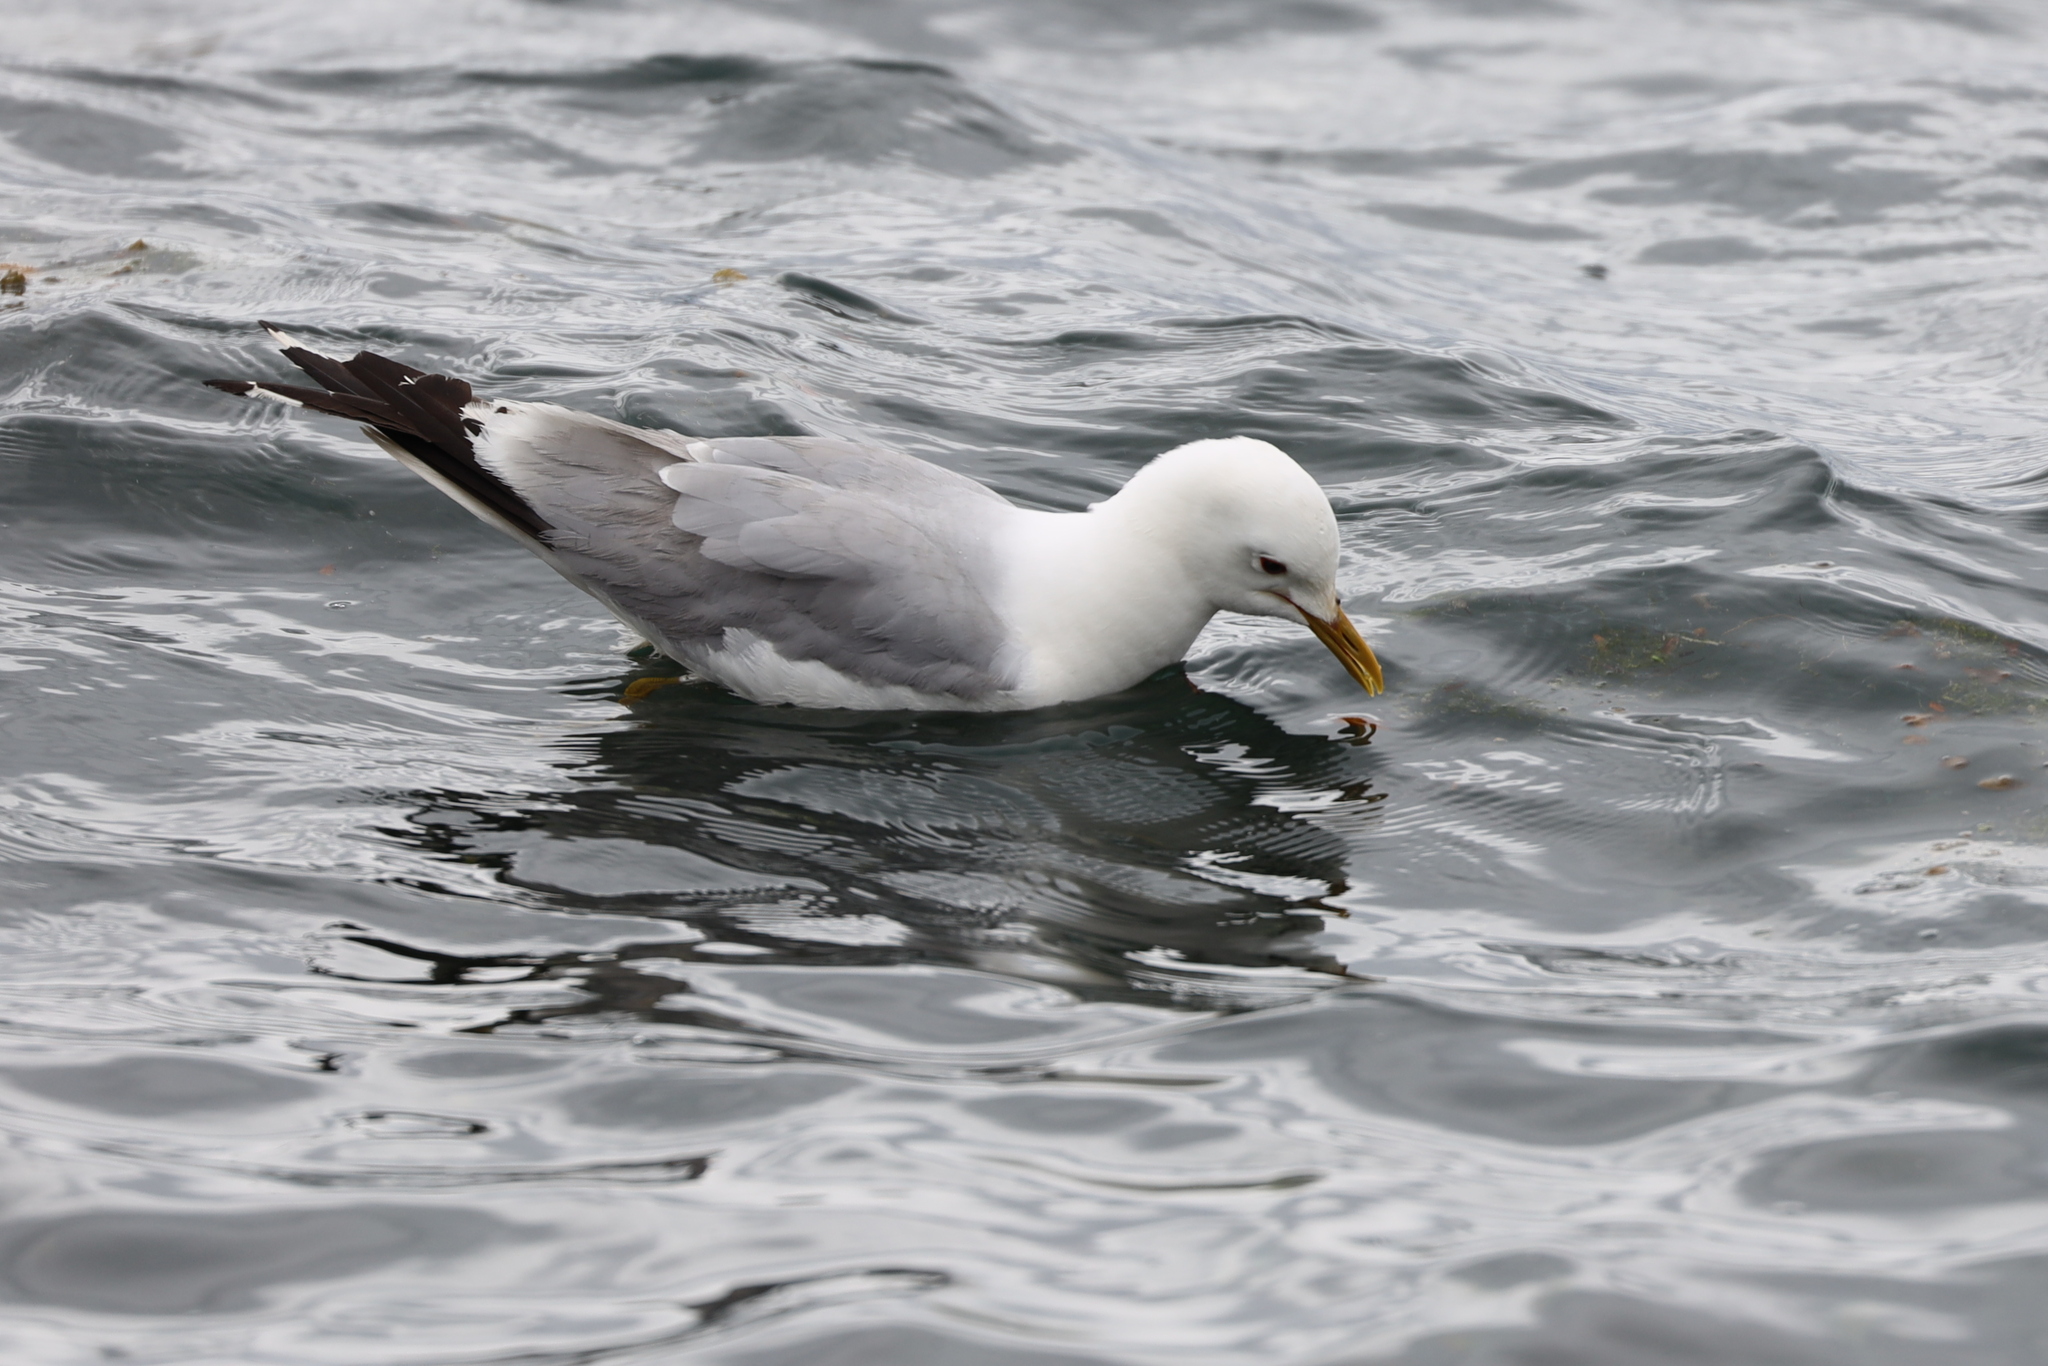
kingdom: Animalia
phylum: Chordata
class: Aves
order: Charadriiformes
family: Laridae
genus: Larus
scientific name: Larus canus
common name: Mew gull
